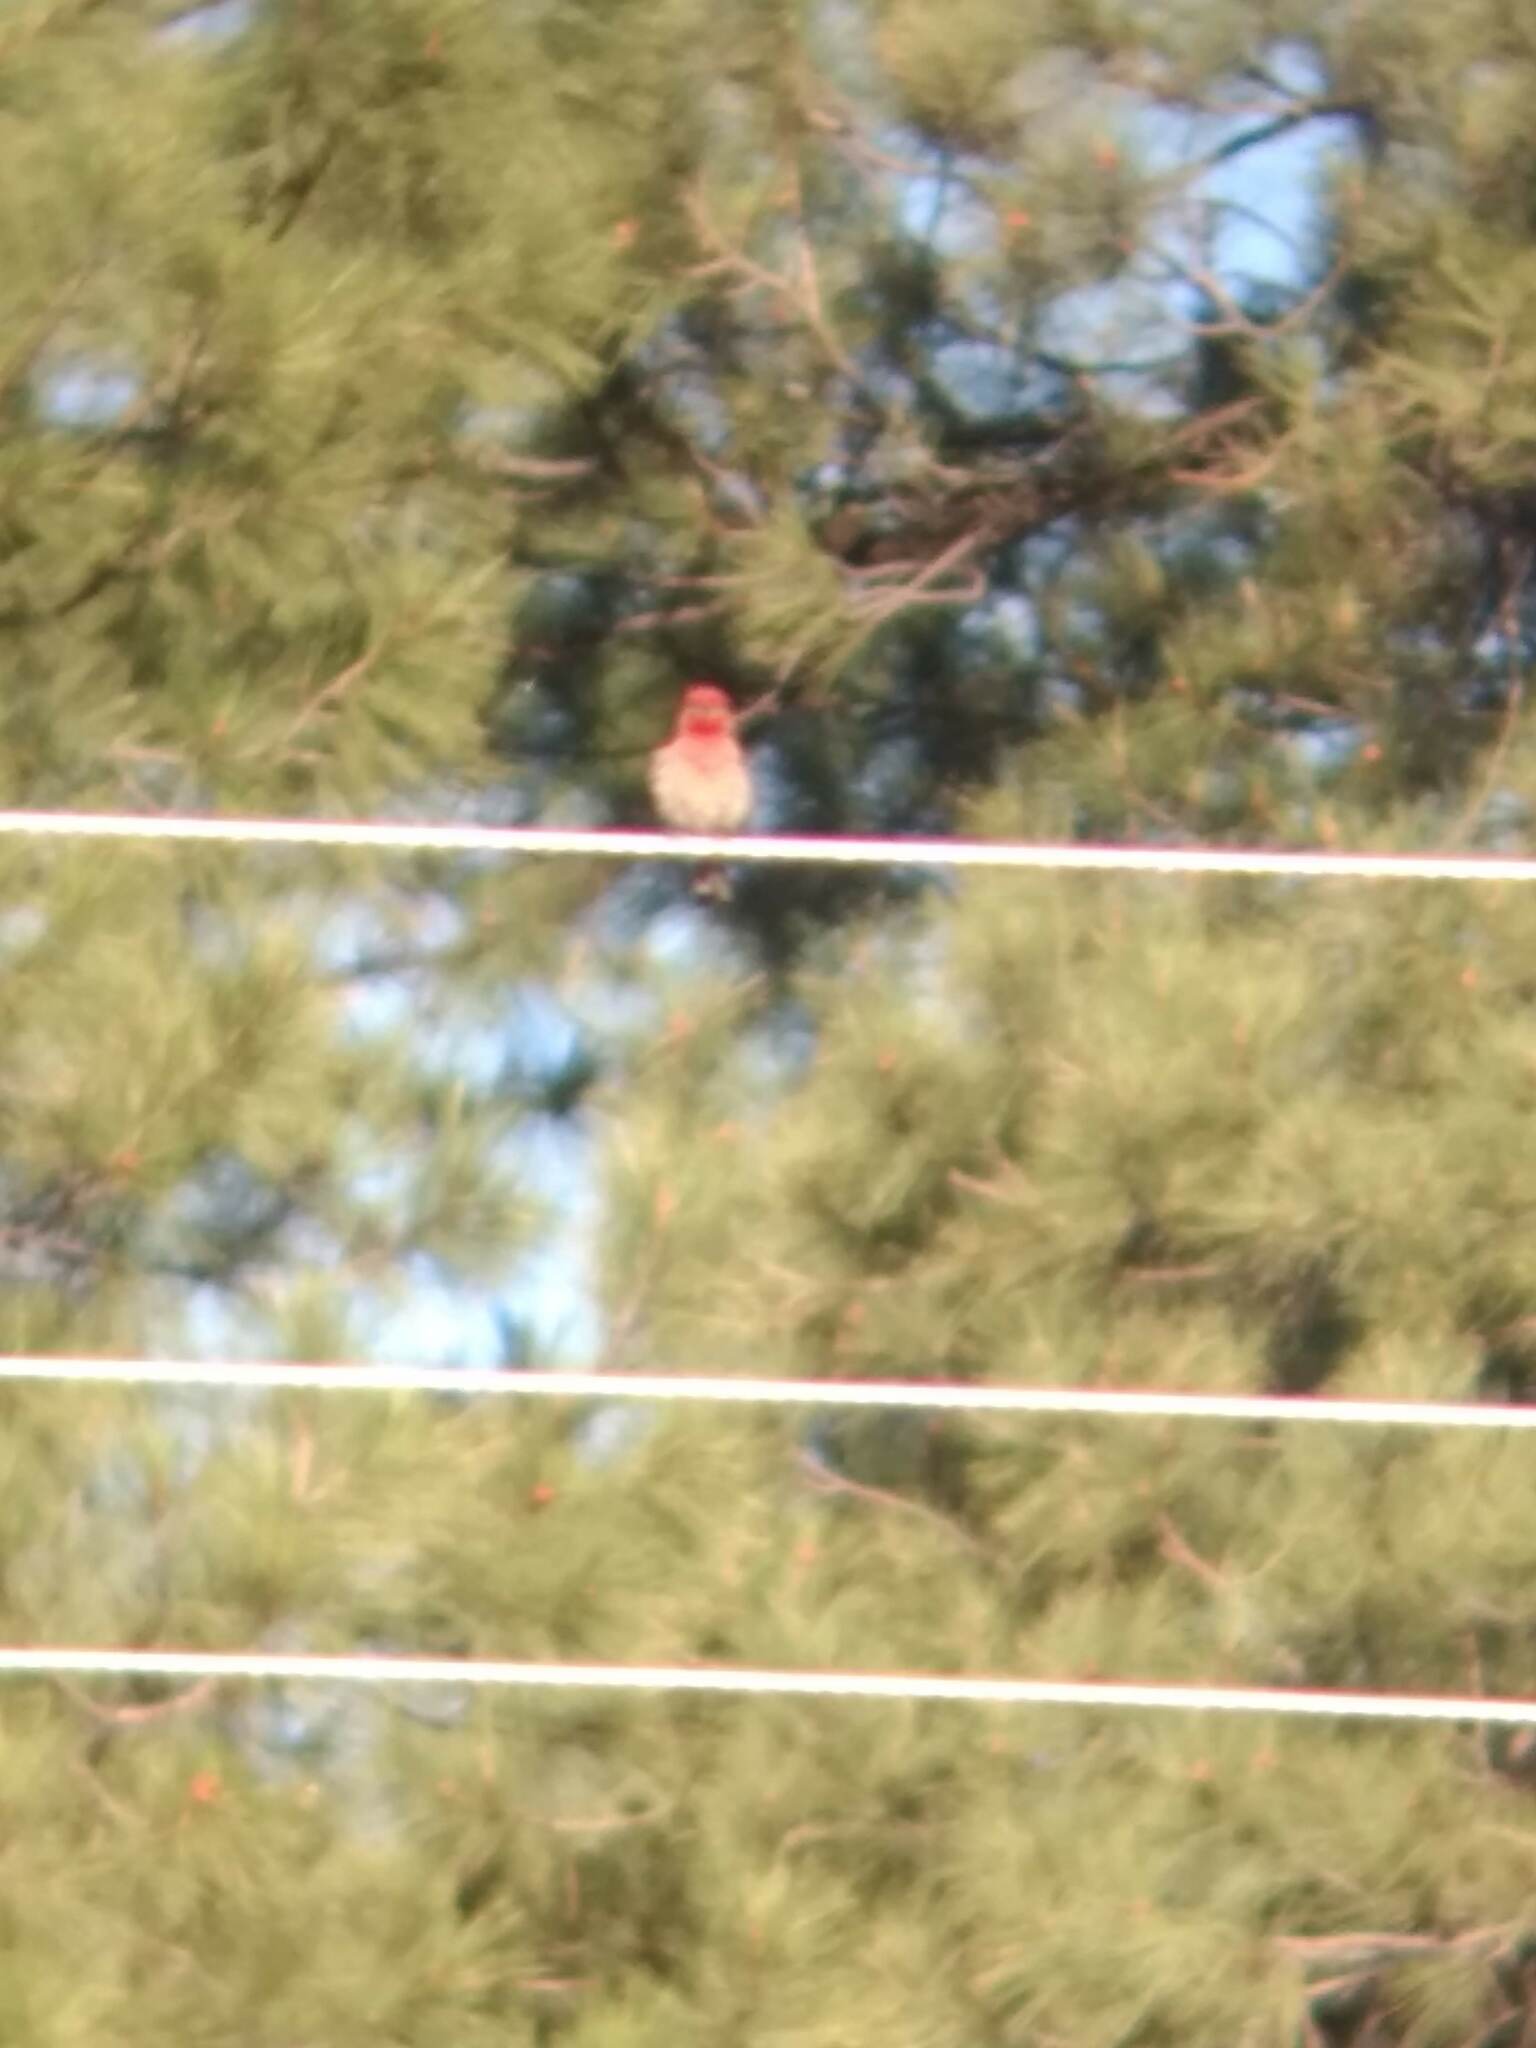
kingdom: Animalia
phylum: Chordata
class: Aves
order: Passeriformes
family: Fringillidae
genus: Haemorhous
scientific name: Haemorhous mexicanus
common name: House finch
